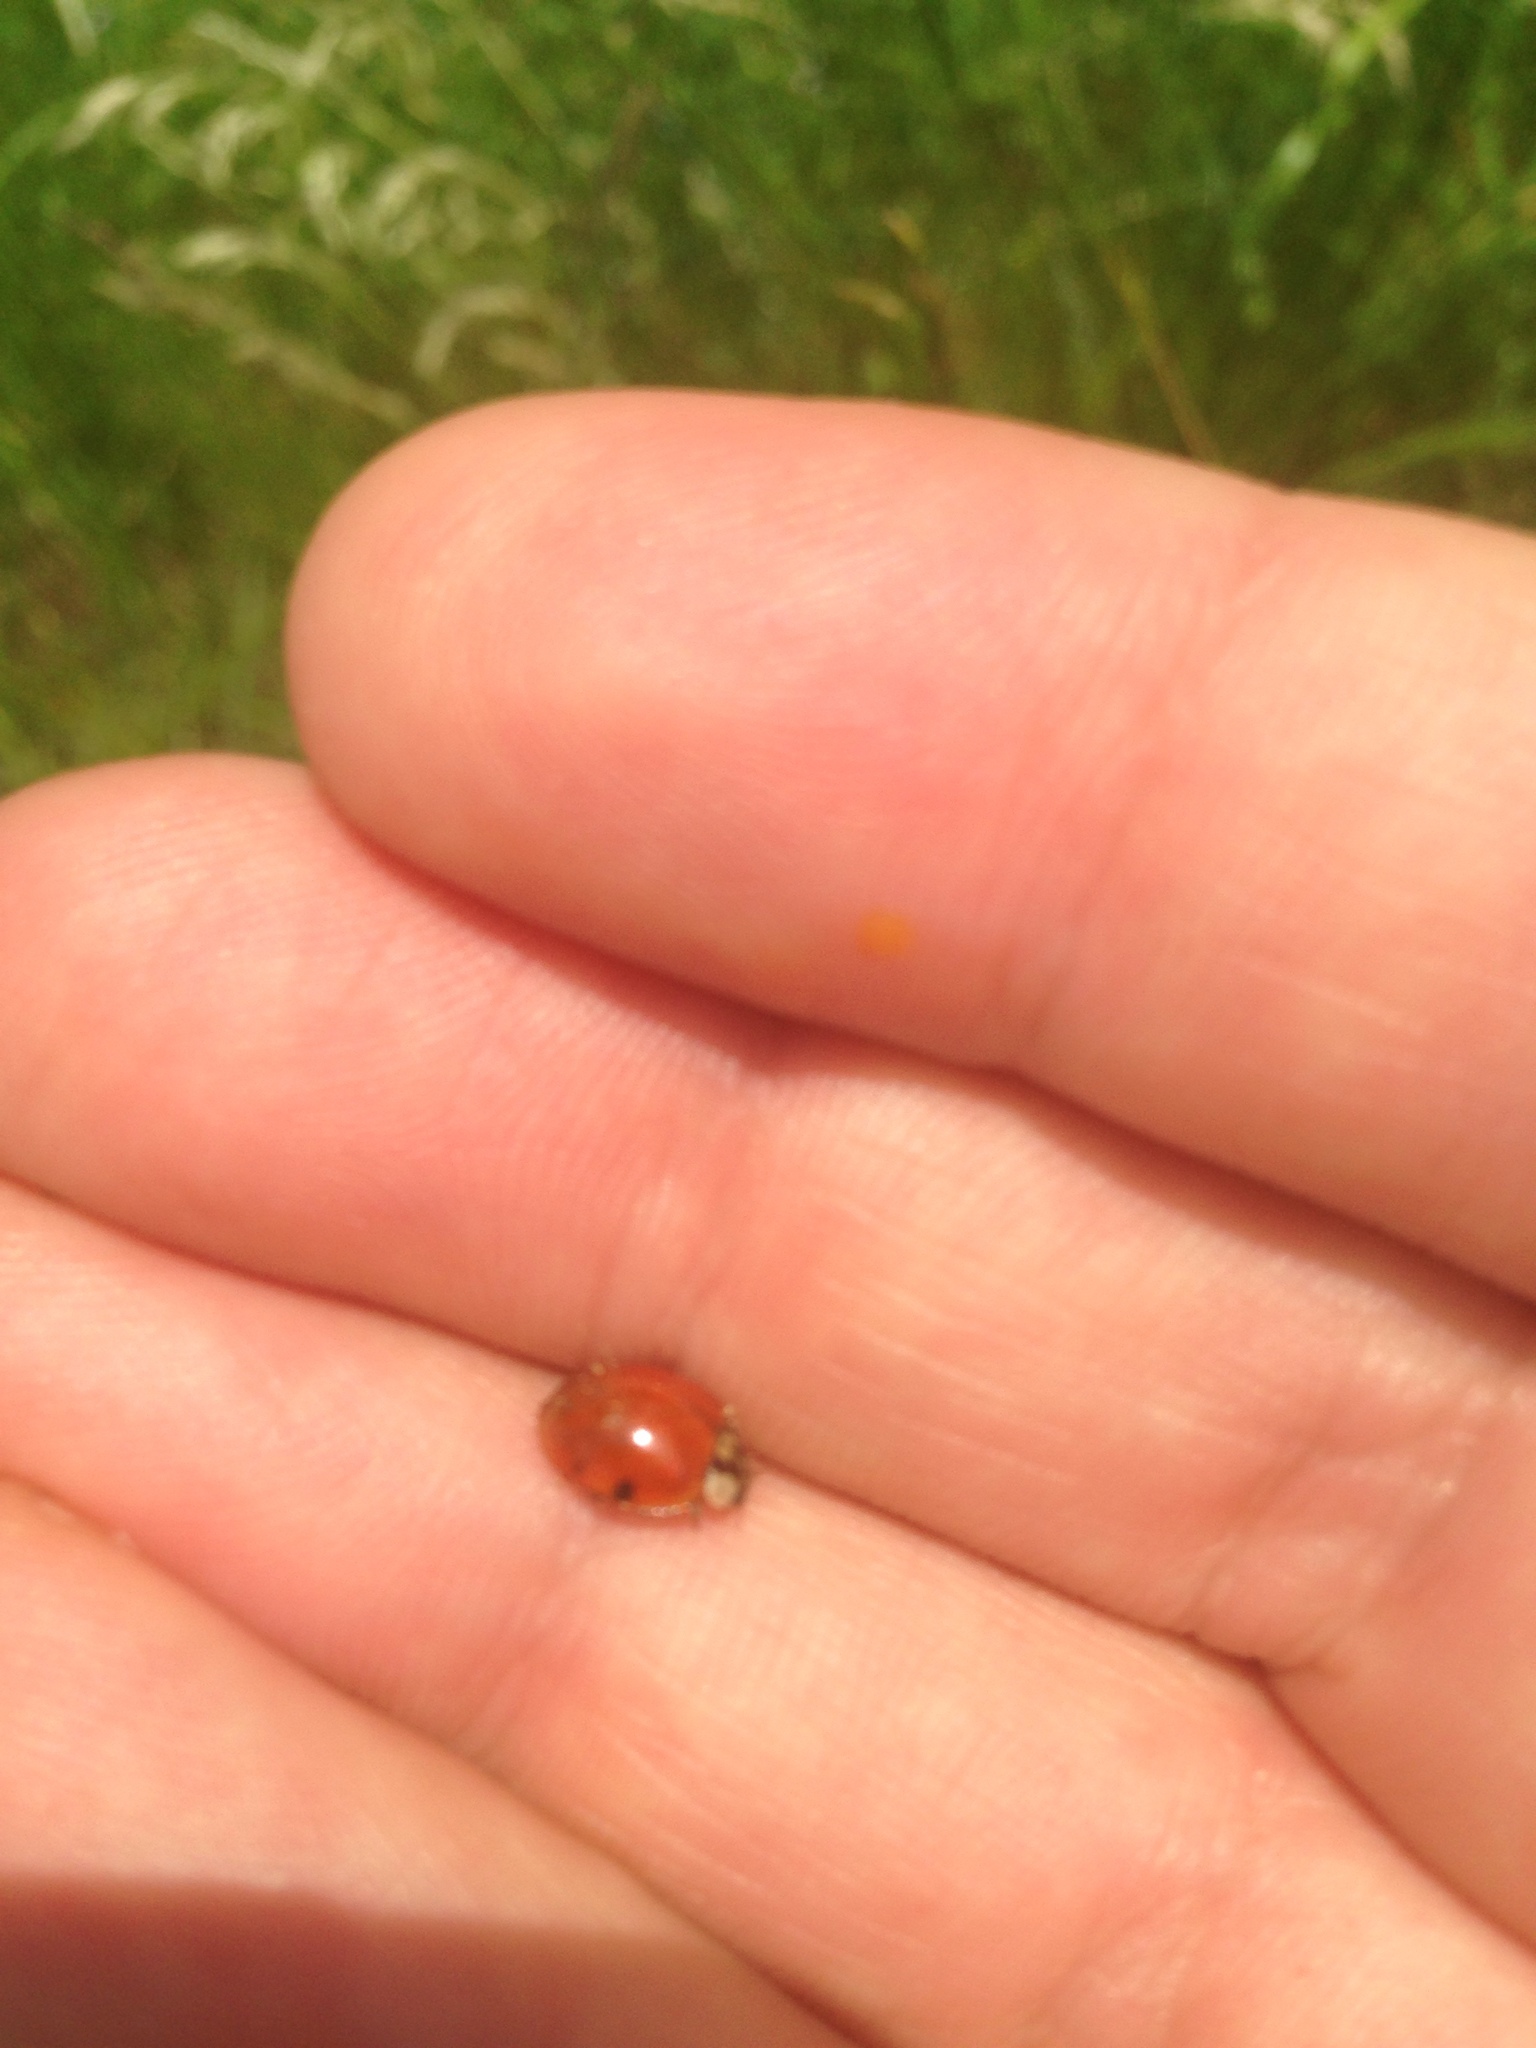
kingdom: Animalia
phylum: Arthropoda
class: Insecta
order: Coleoptera
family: Coccinellidae
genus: Harmonia
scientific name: Harmonia axyridis
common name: Harlequin ladybird
